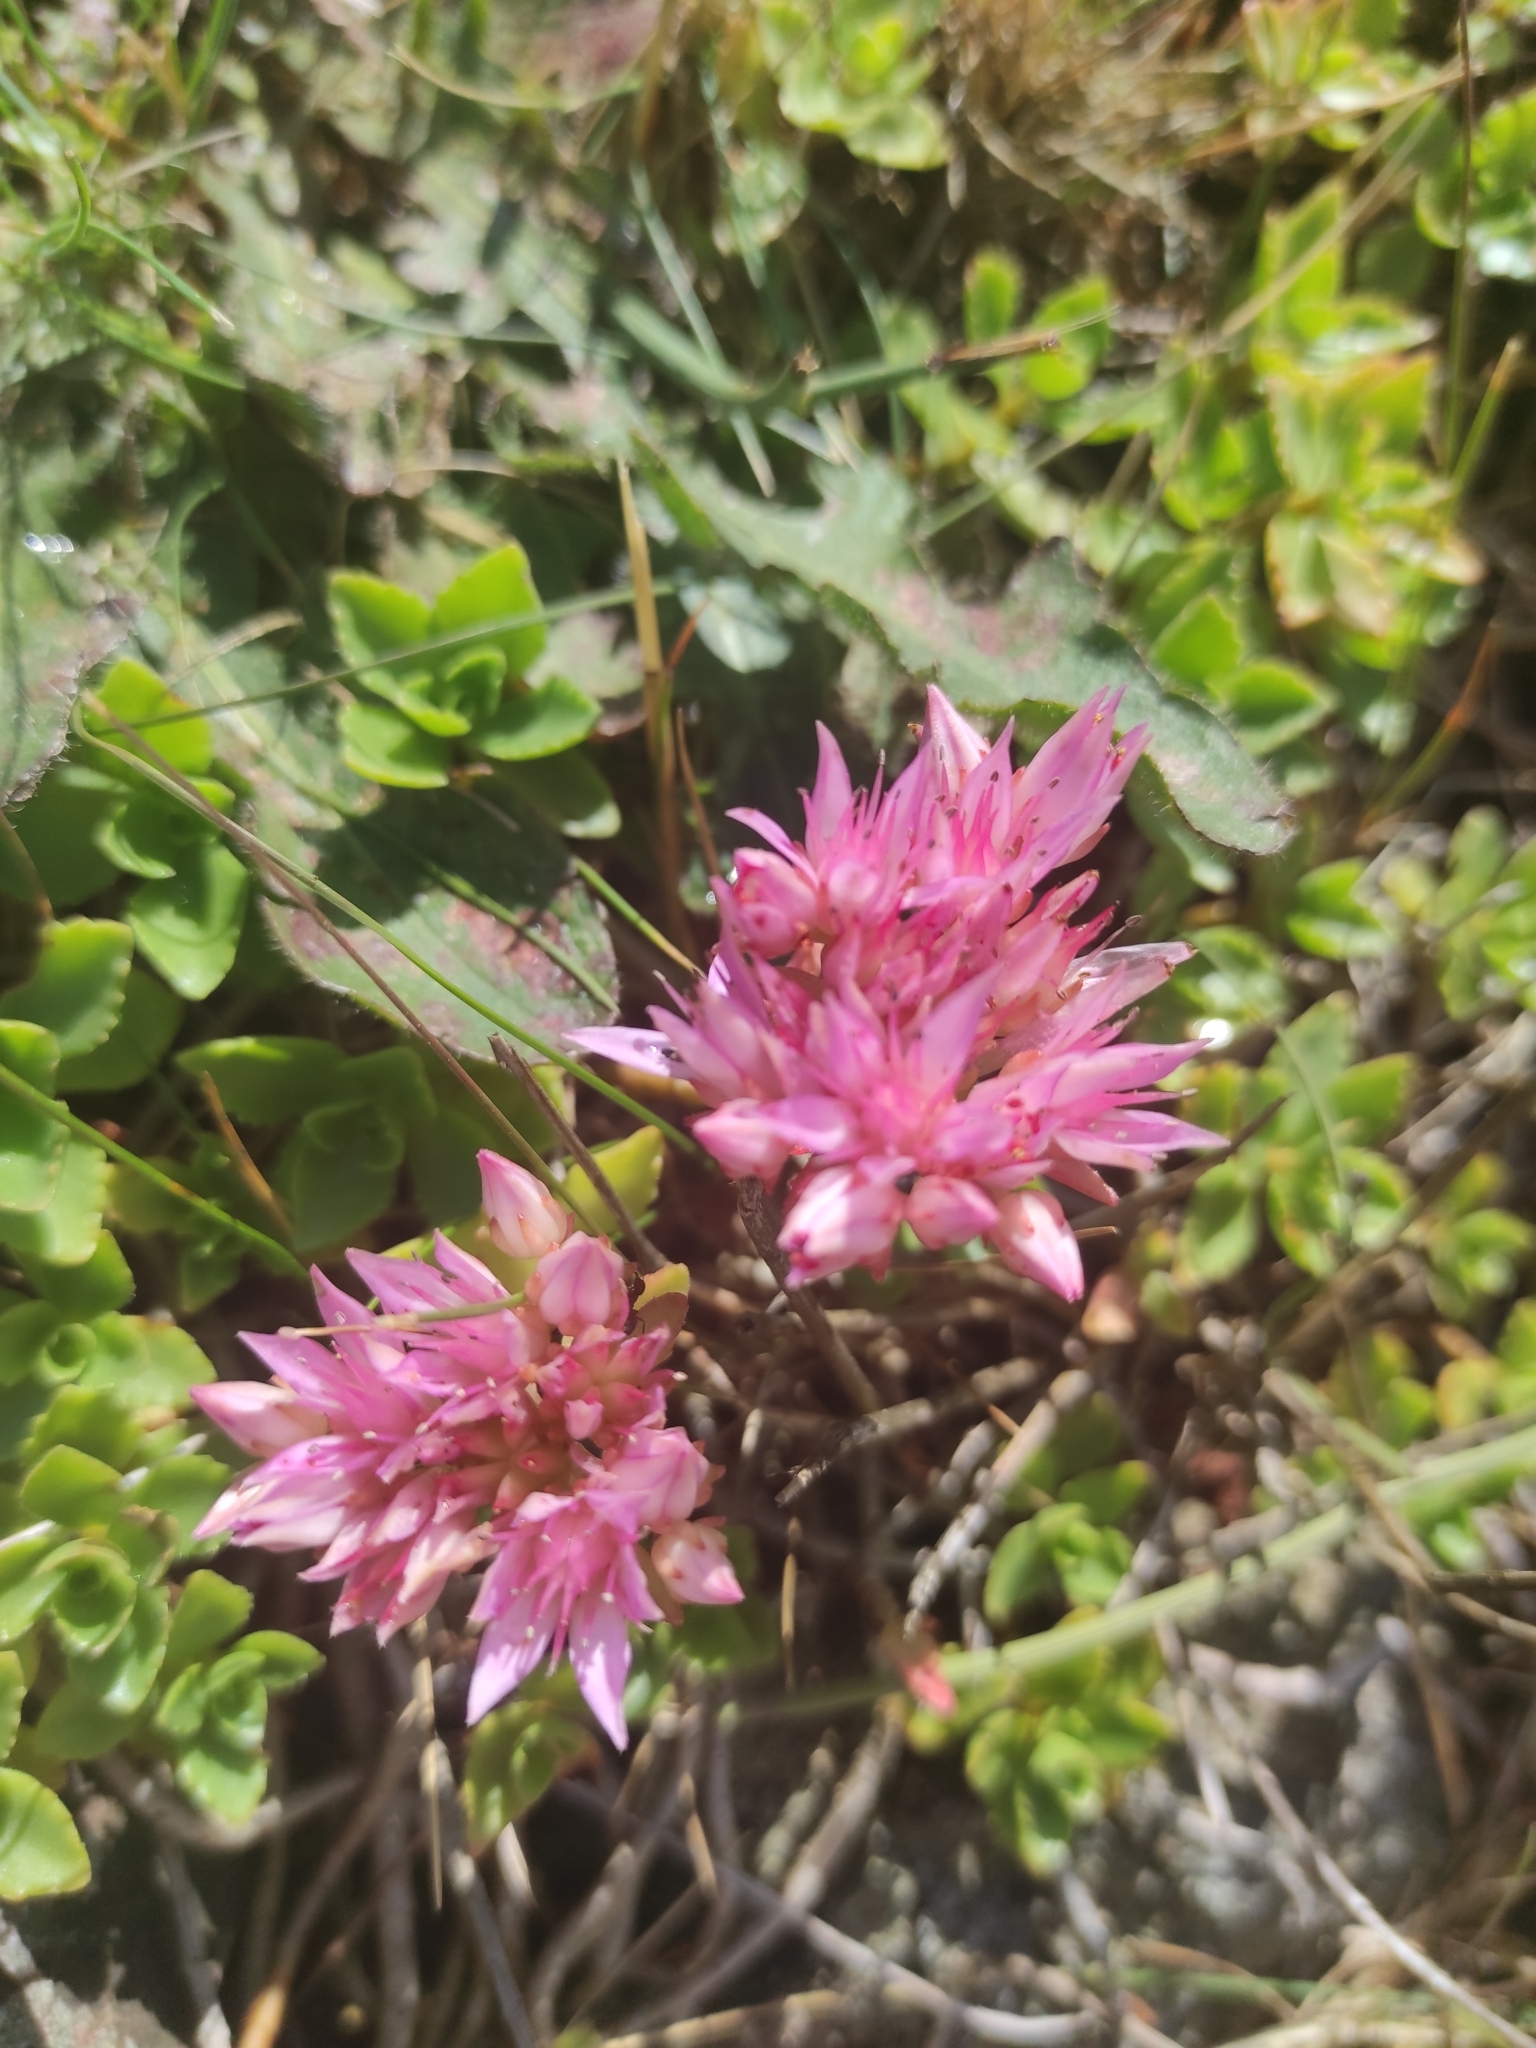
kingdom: Plantae
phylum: Tracheophyta
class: Magnoliopsida
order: Saxifragales
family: Crassulaceae
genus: Phedimus
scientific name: Phedimus spurius
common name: Caucasian stonecrop
